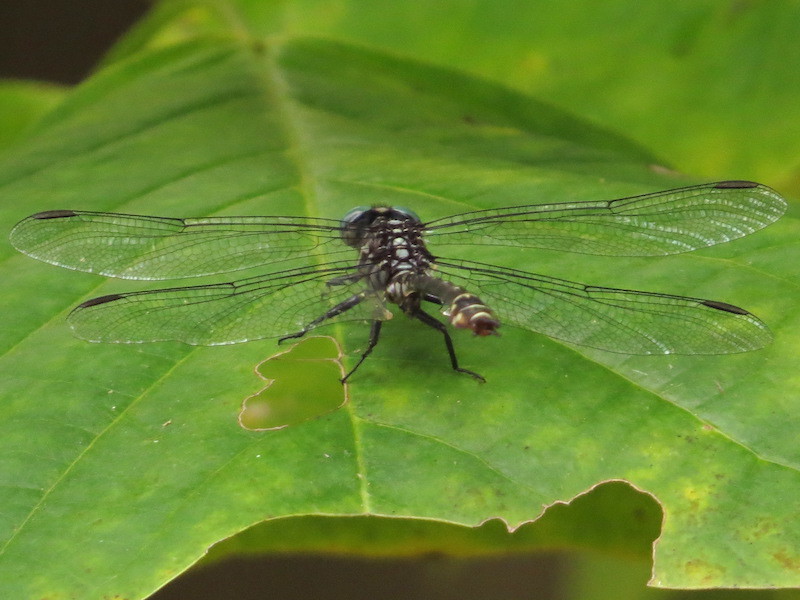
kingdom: Animalia
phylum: Arthropoda
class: Insecta
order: Odonata
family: Gomphidae
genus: Stylurus
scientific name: Stylurus notatus
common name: Elusive clubtail
